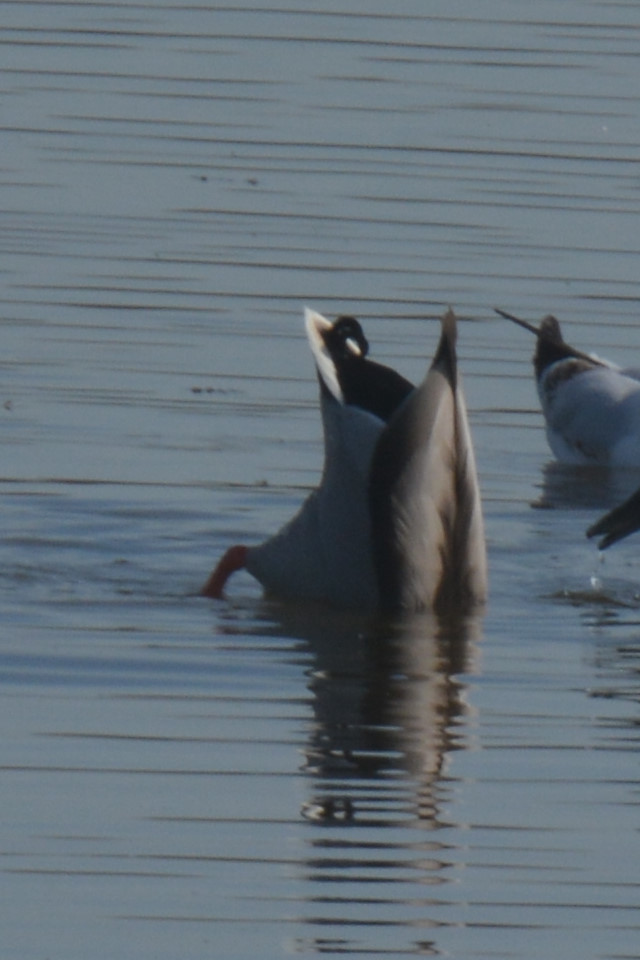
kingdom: Animalia
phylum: Chordata
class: Aves
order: Anseriformes
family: Anatidae
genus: Anas
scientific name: Anas platyrhynchos
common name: Mallard
